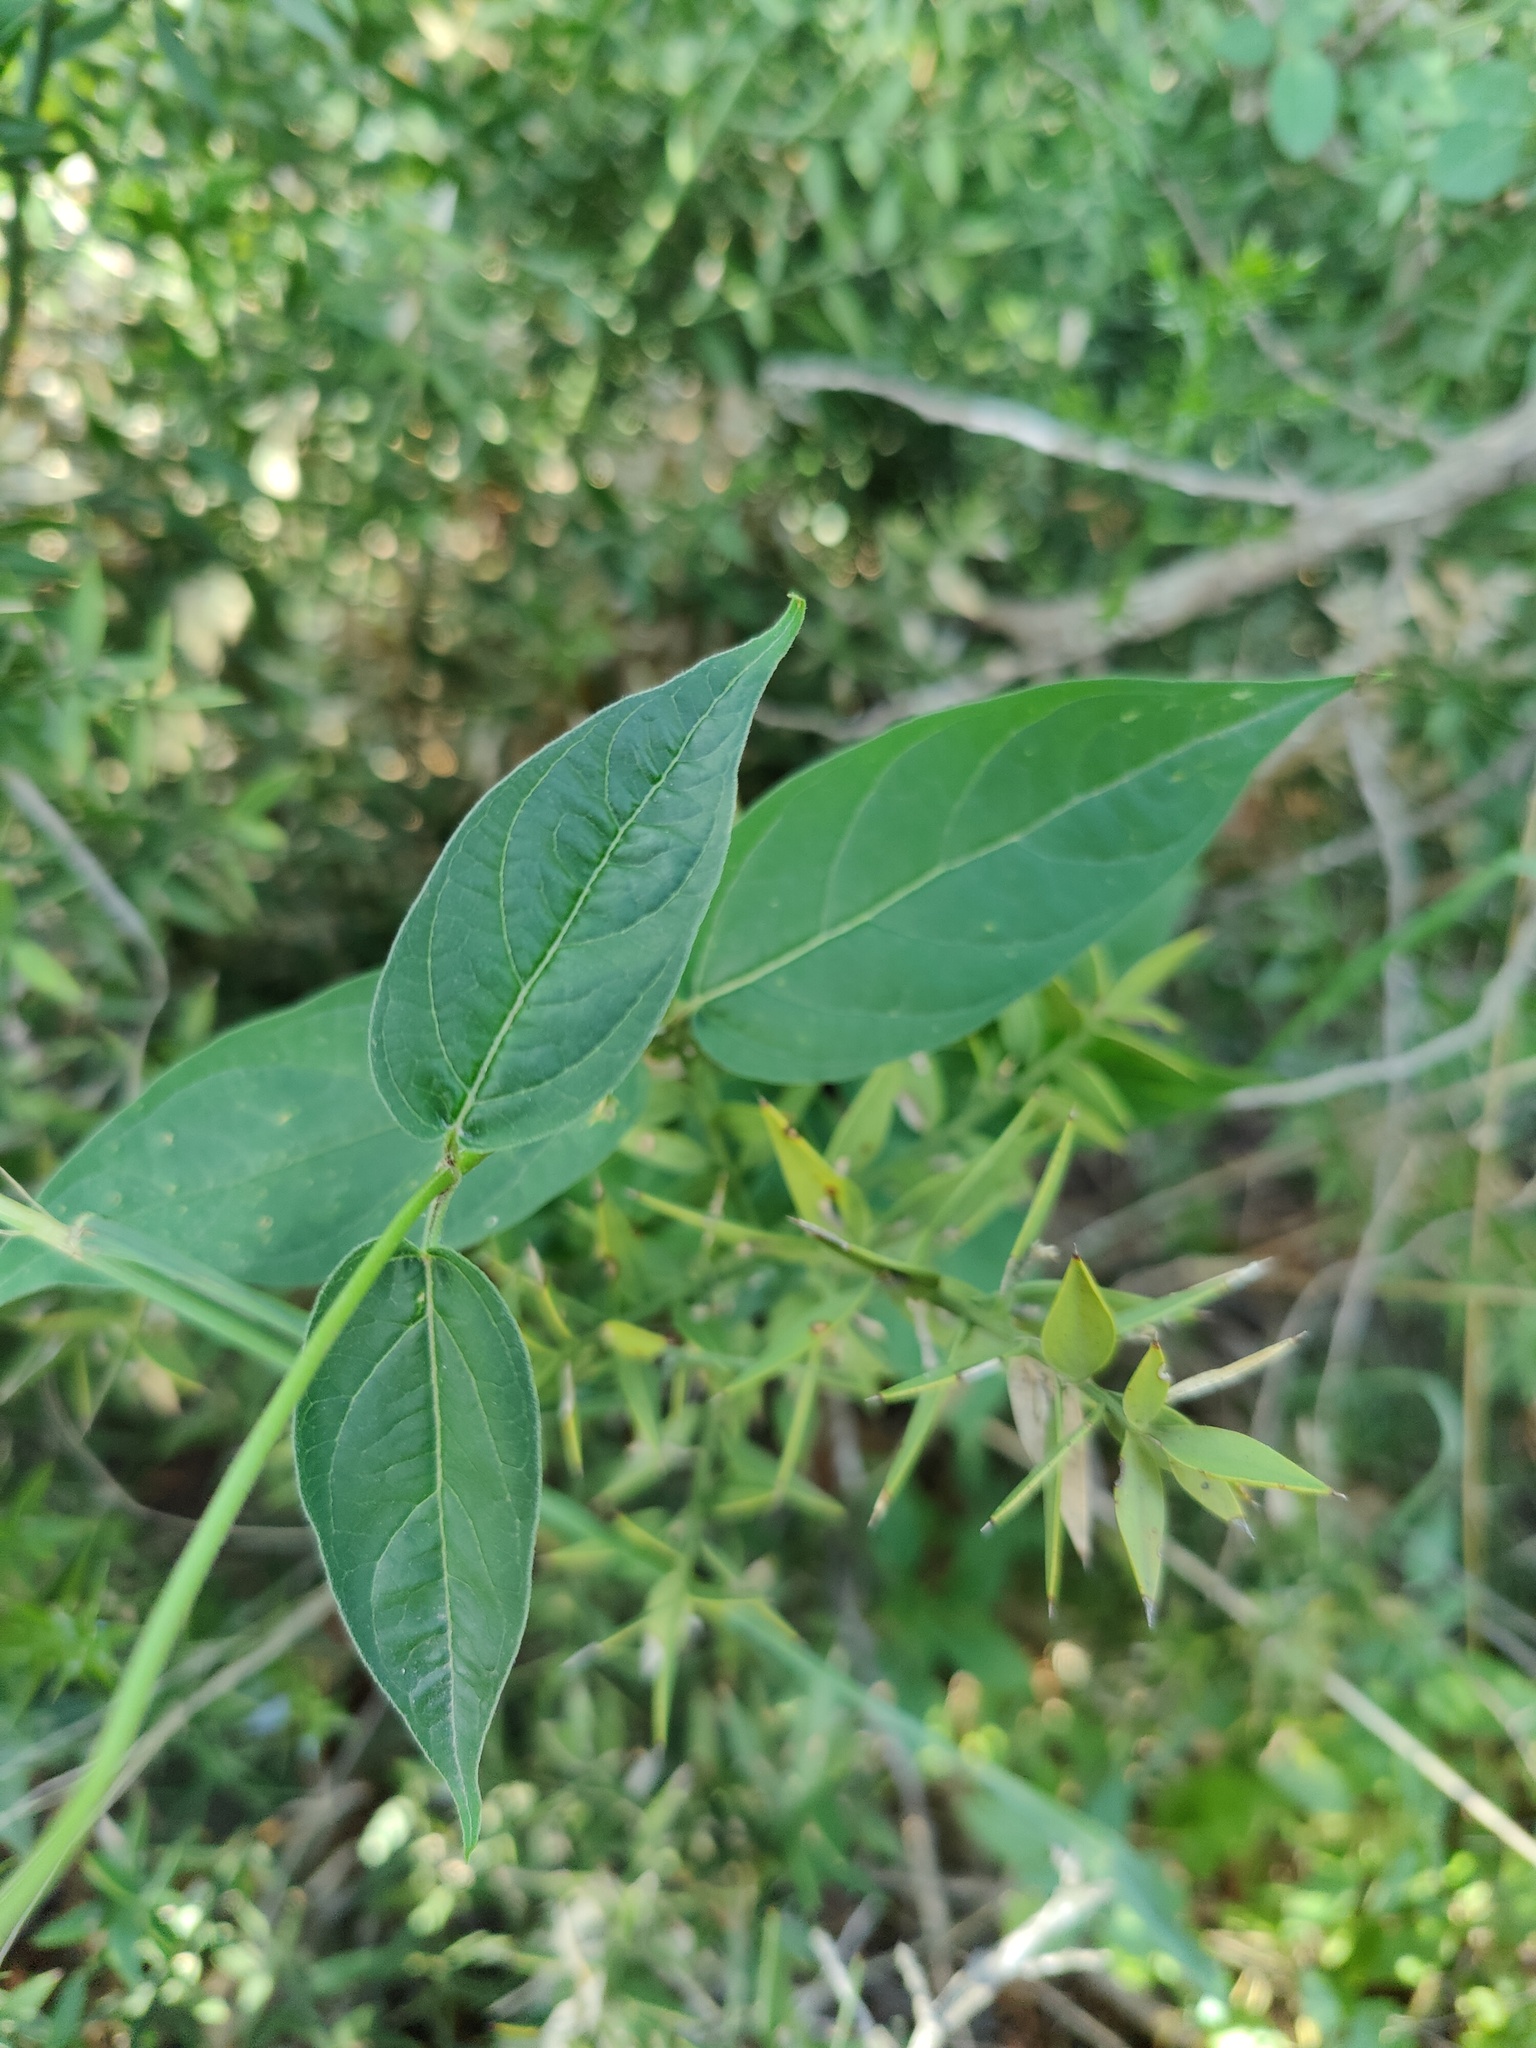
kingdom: Plantae
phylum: Tracheophyta
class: Magnoliopsida
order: Gentianales
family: Apocynaceae
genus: Vincetoxicum
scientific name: Vincetoxicum scandens
